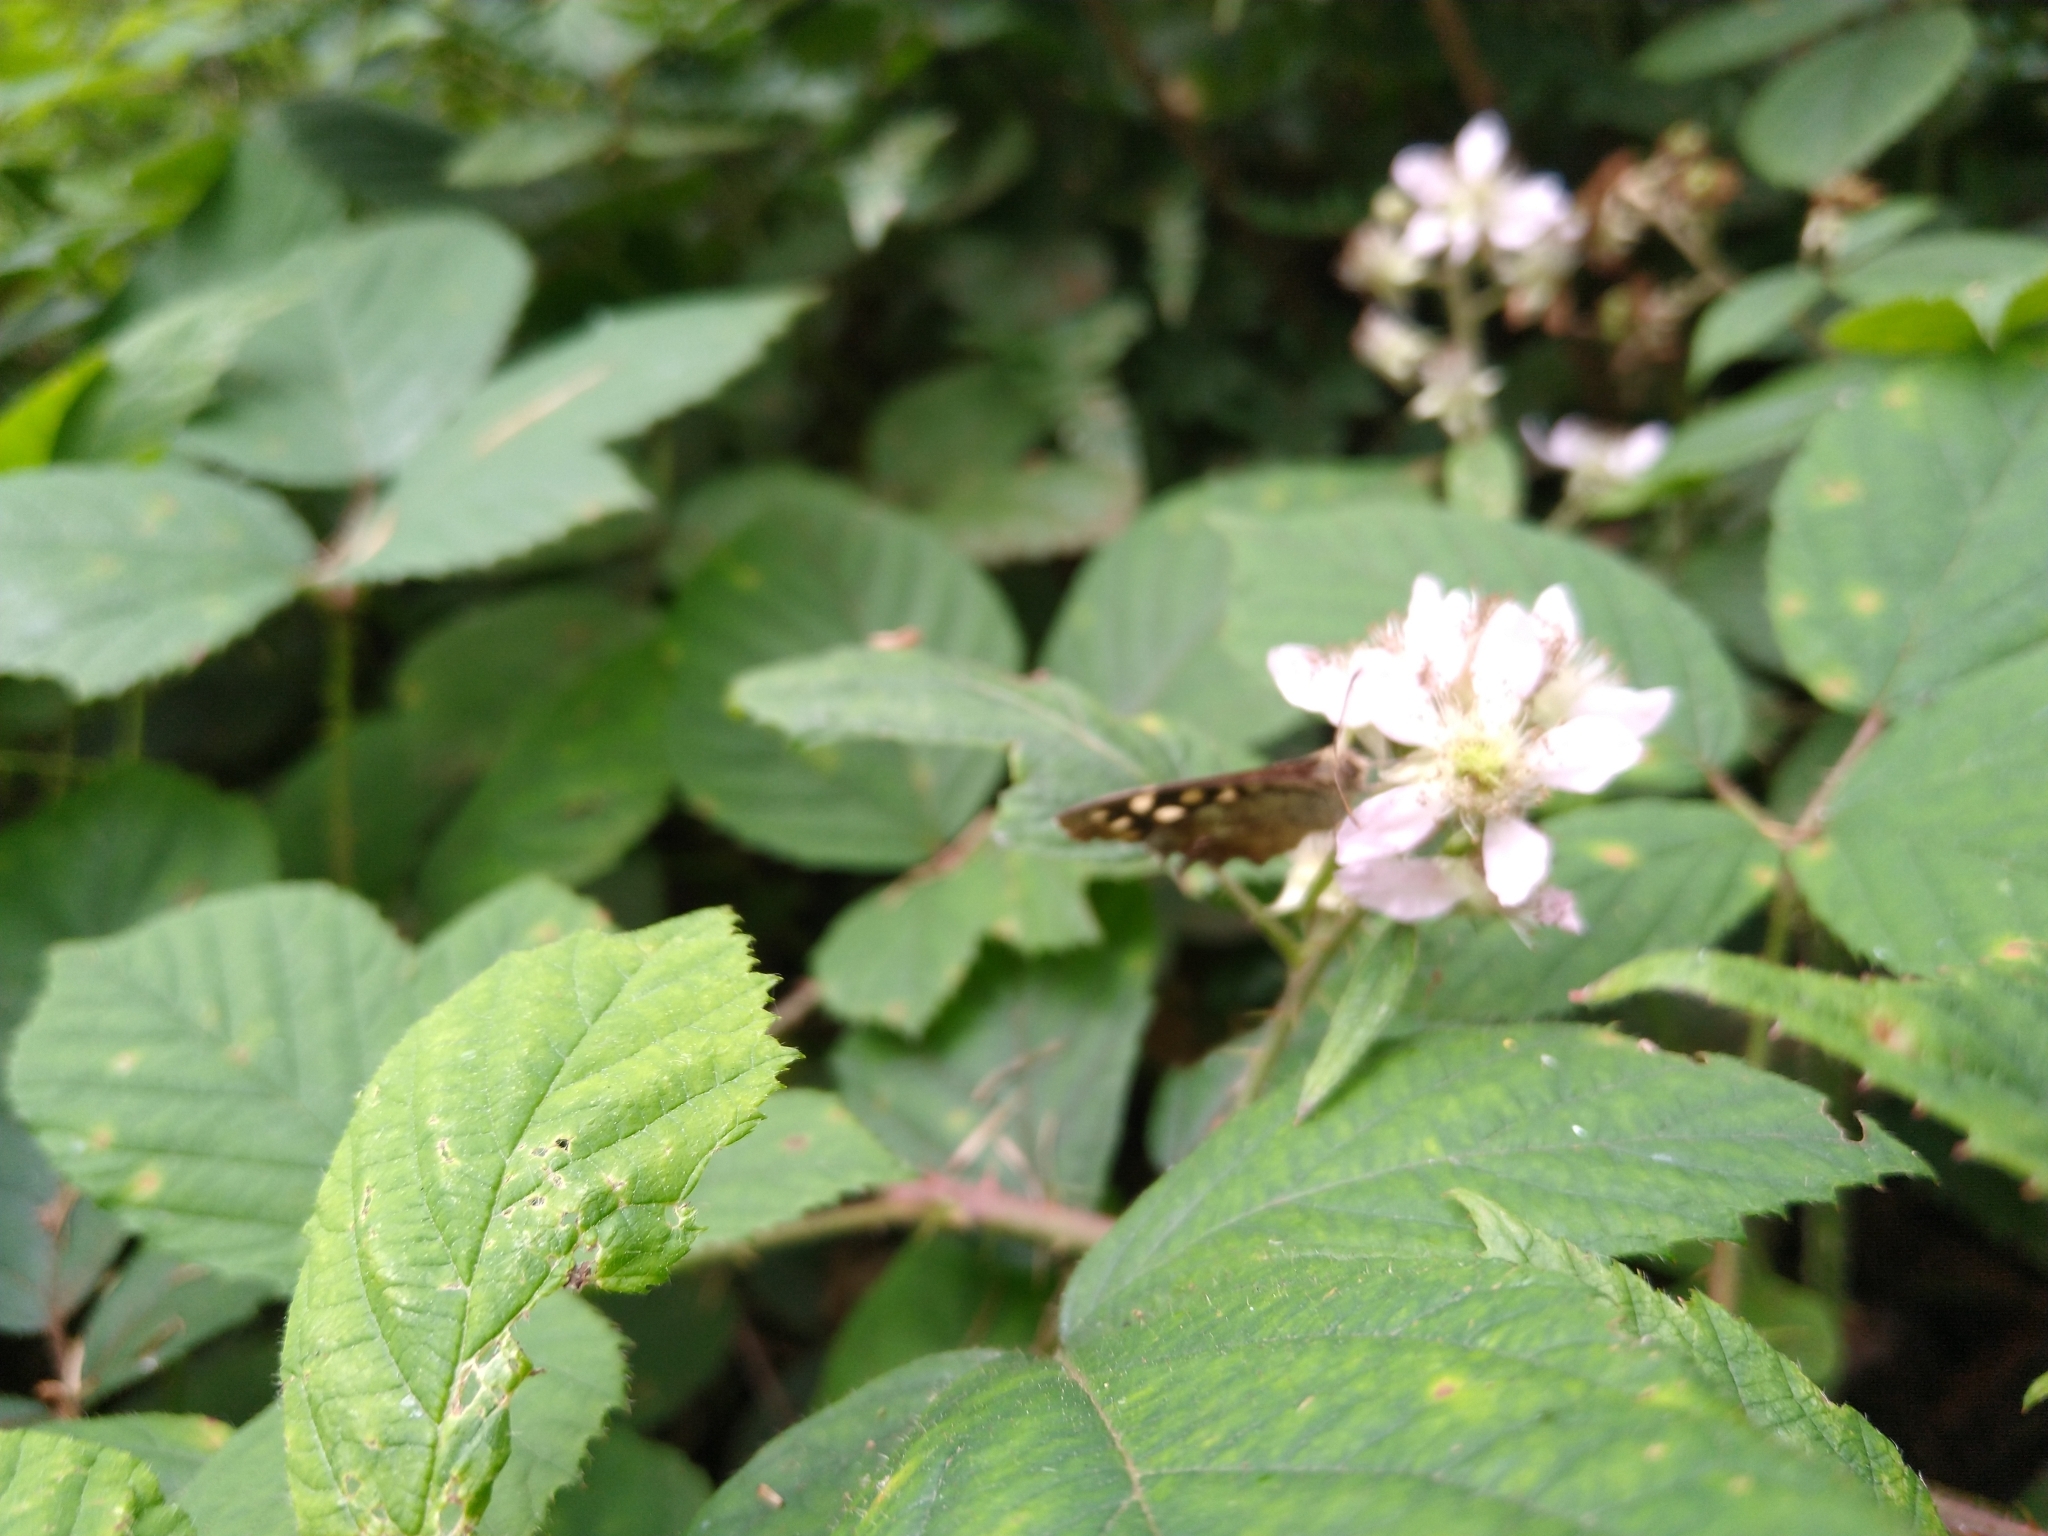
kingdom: Animalia
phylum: Arthropoda
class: Insecta
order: Lepidoptera
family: Nymphalidae
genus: Pararge
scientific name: Pararge aegeria
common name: Speckled wood
